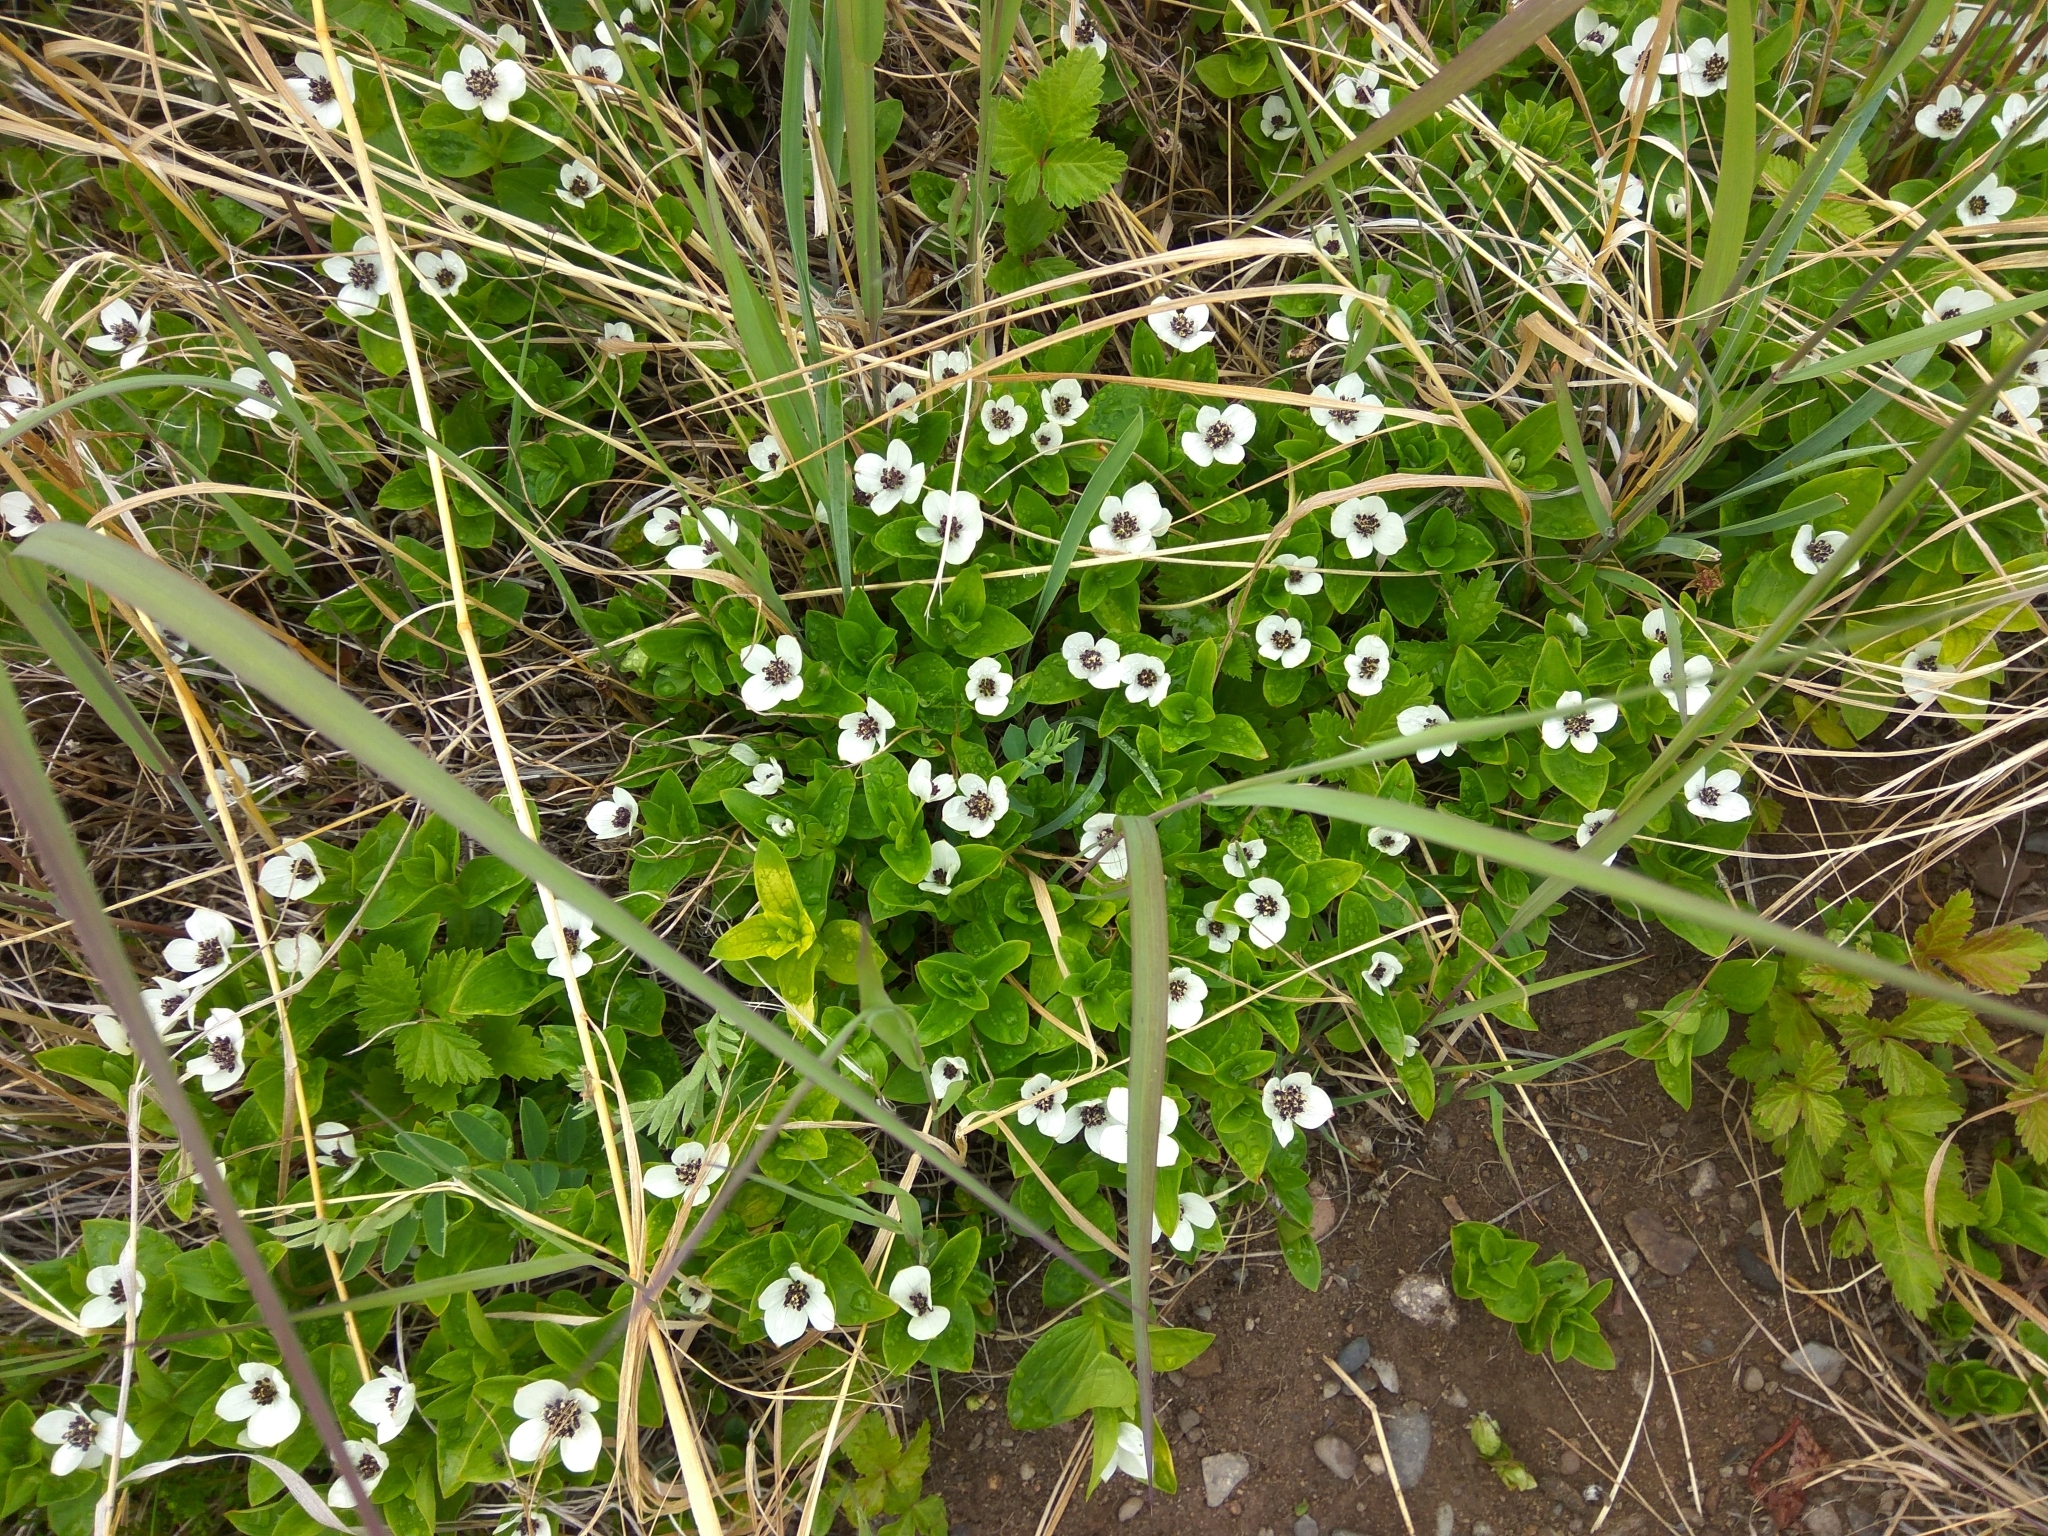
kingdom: Plantae
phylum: Tracheophyta
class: Magnoliopsida
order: Cornales
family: Cornaceae
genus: Cornus
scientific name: Cornus suecica
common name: Dwarf cornel
